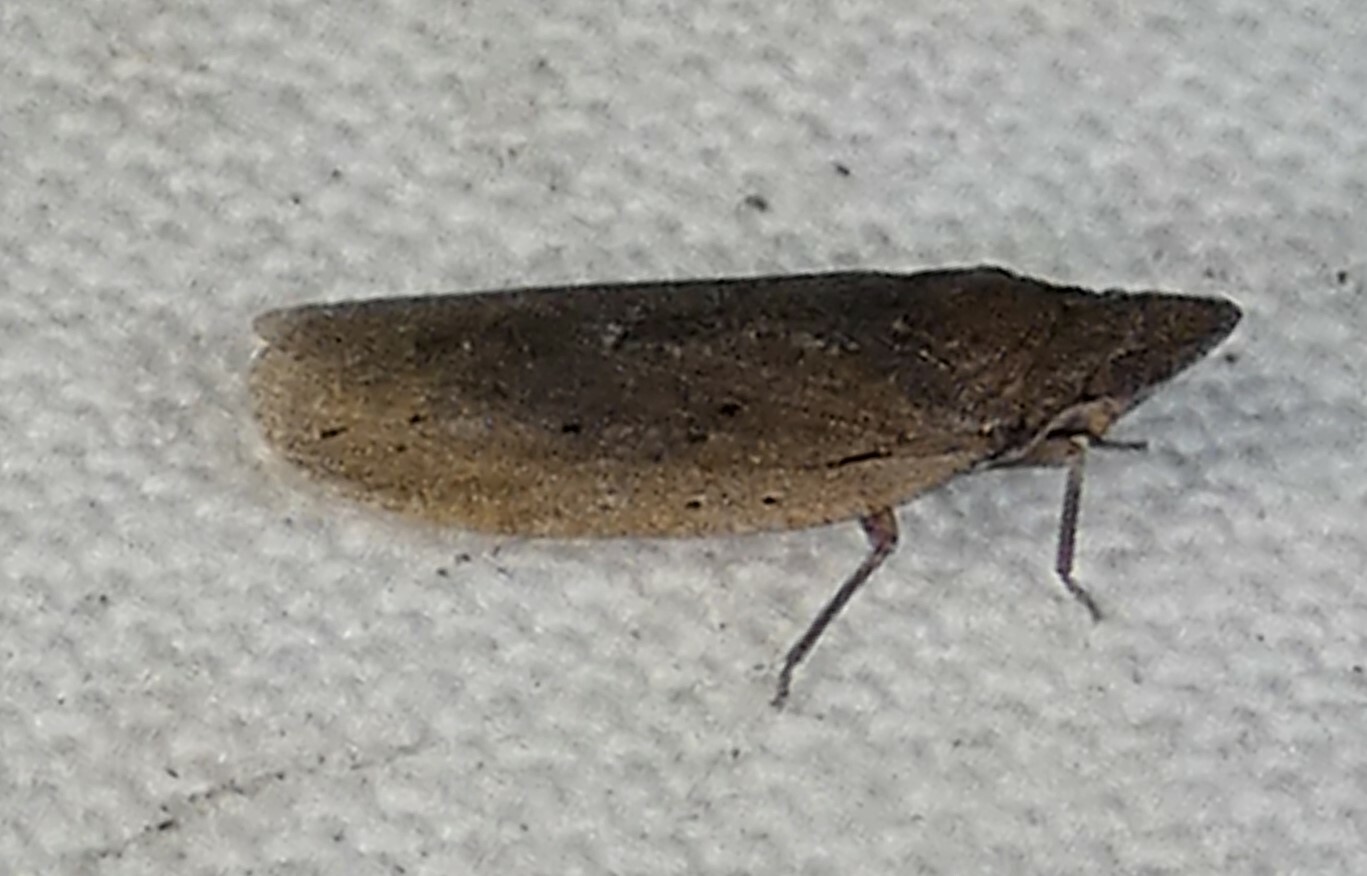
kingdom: Animalia
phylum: Arthropoda
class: Insecta
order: Hemiptera
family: Achilidae
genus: Cixidia
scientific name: Cixidia fusca
